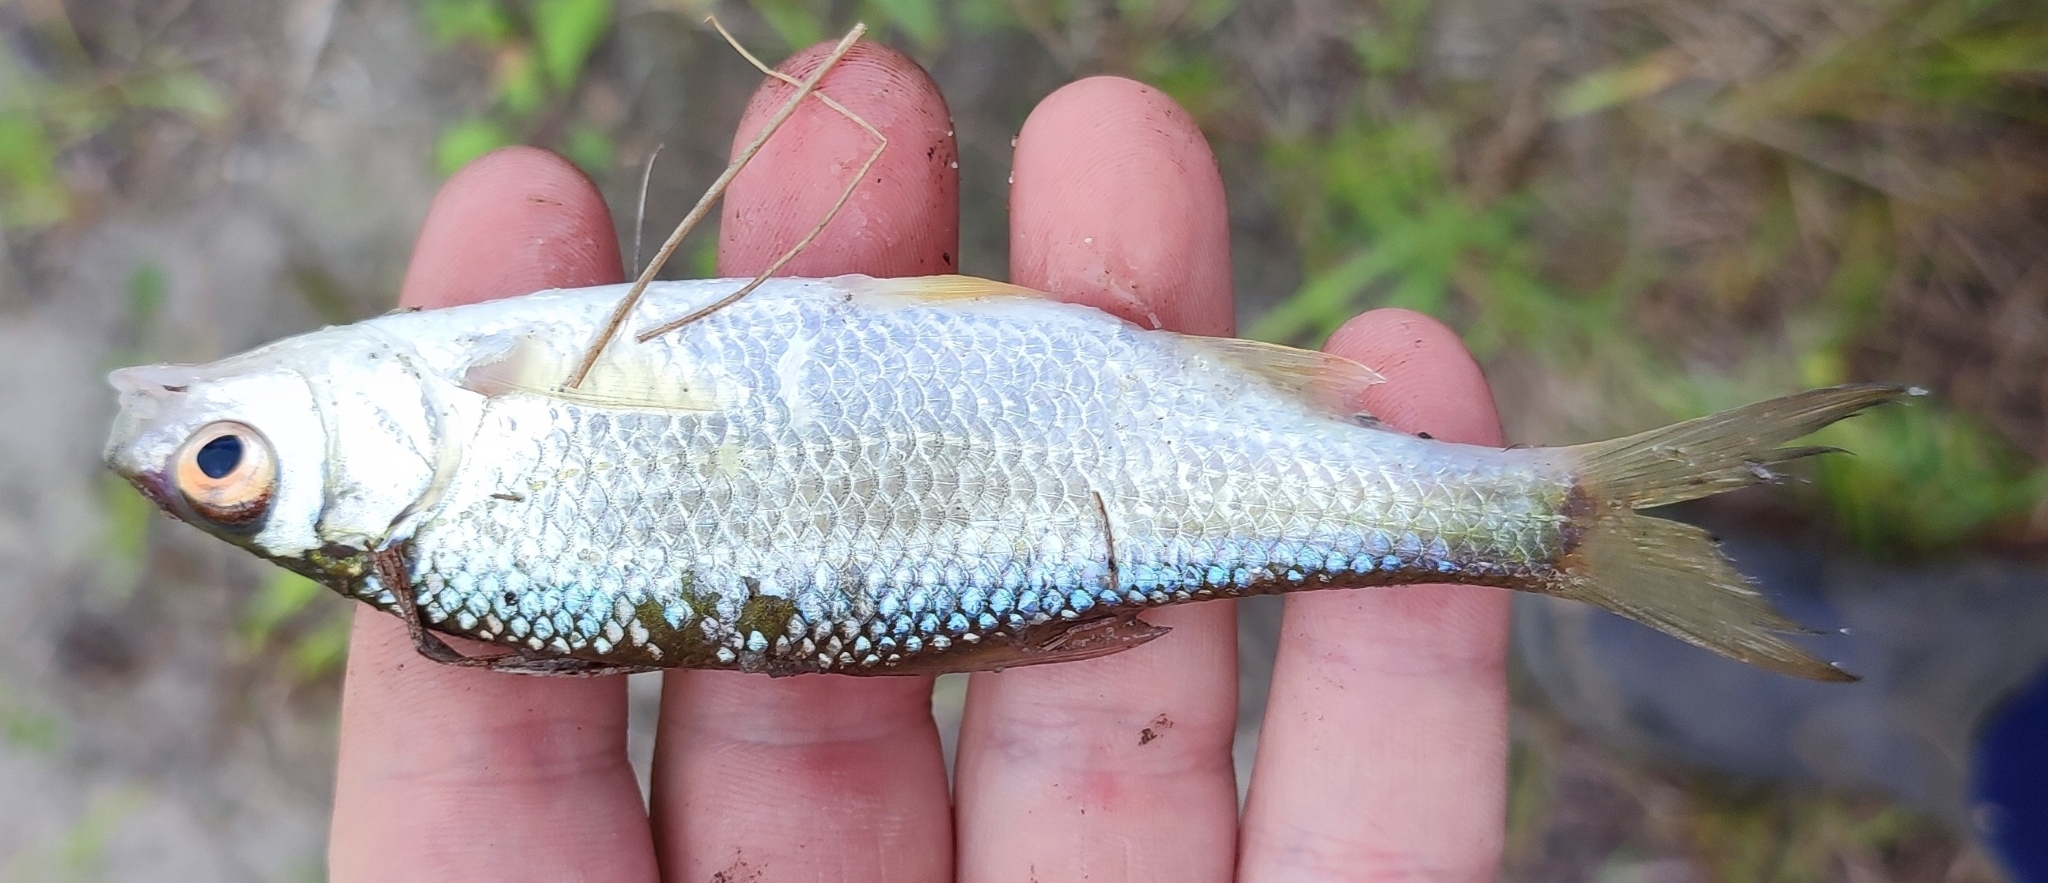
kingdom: Animalia
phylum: Chordata
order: Cypriniformes
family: Cyprinidae
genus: Rutilus
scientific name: Rutilus rutilus
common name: Roach
